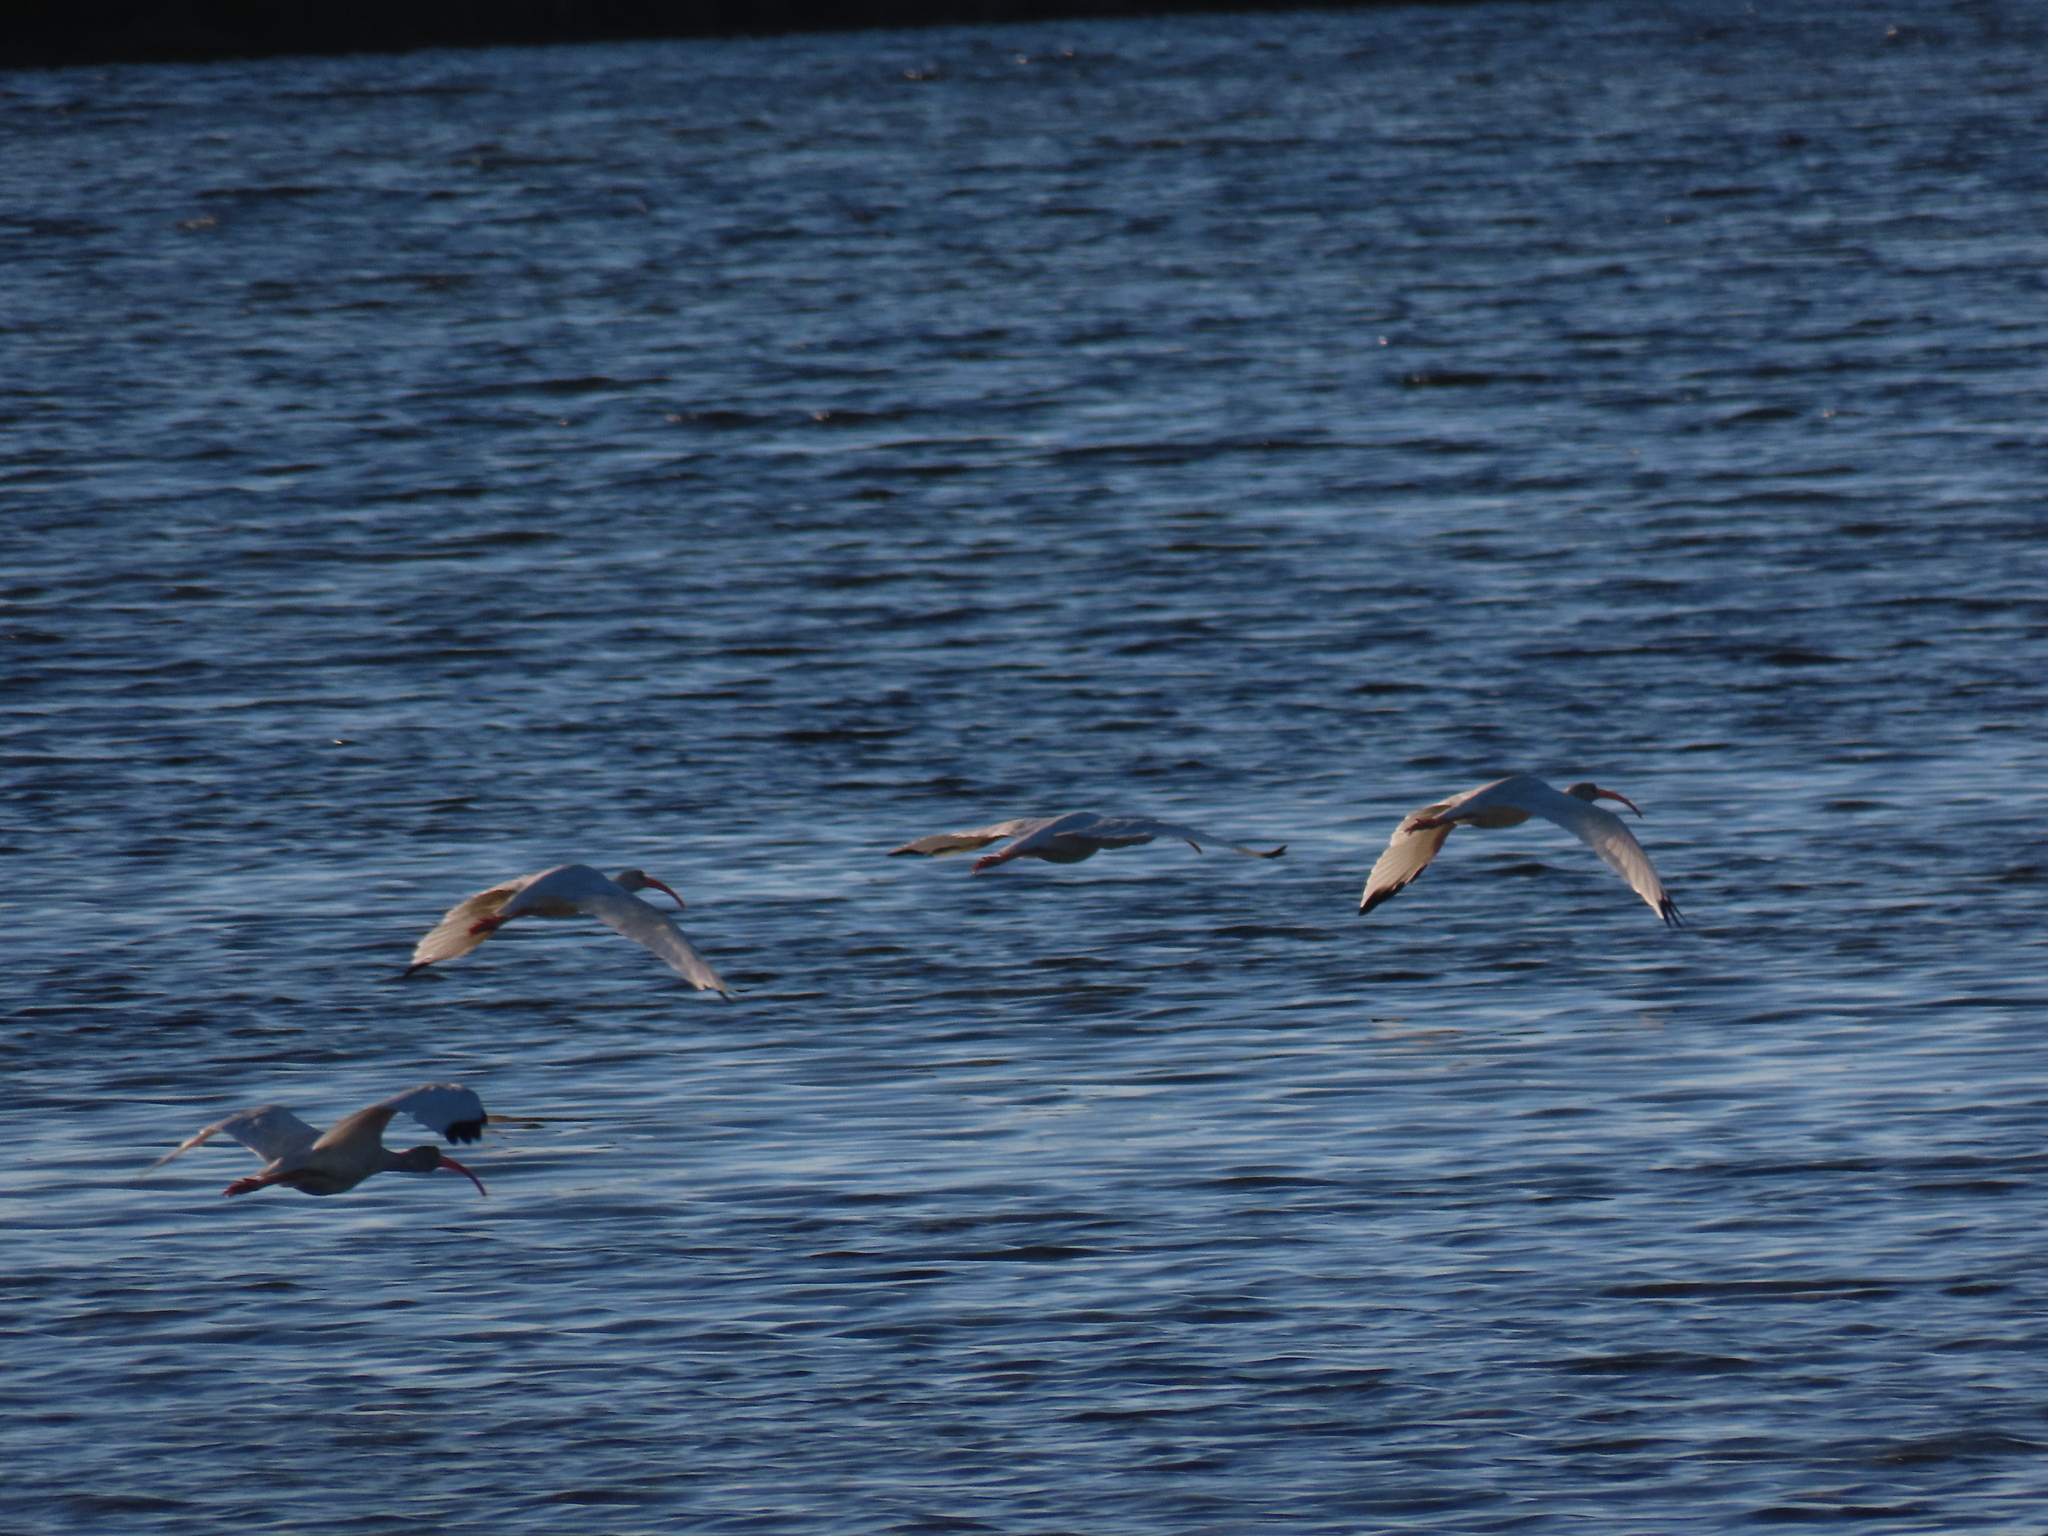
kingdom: Animalia
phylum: Chordata
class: Aves
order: Pelecaniformes
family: Threskiornithidae
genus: Eudocimus
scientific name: Eudocimus albus
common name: White ibis
